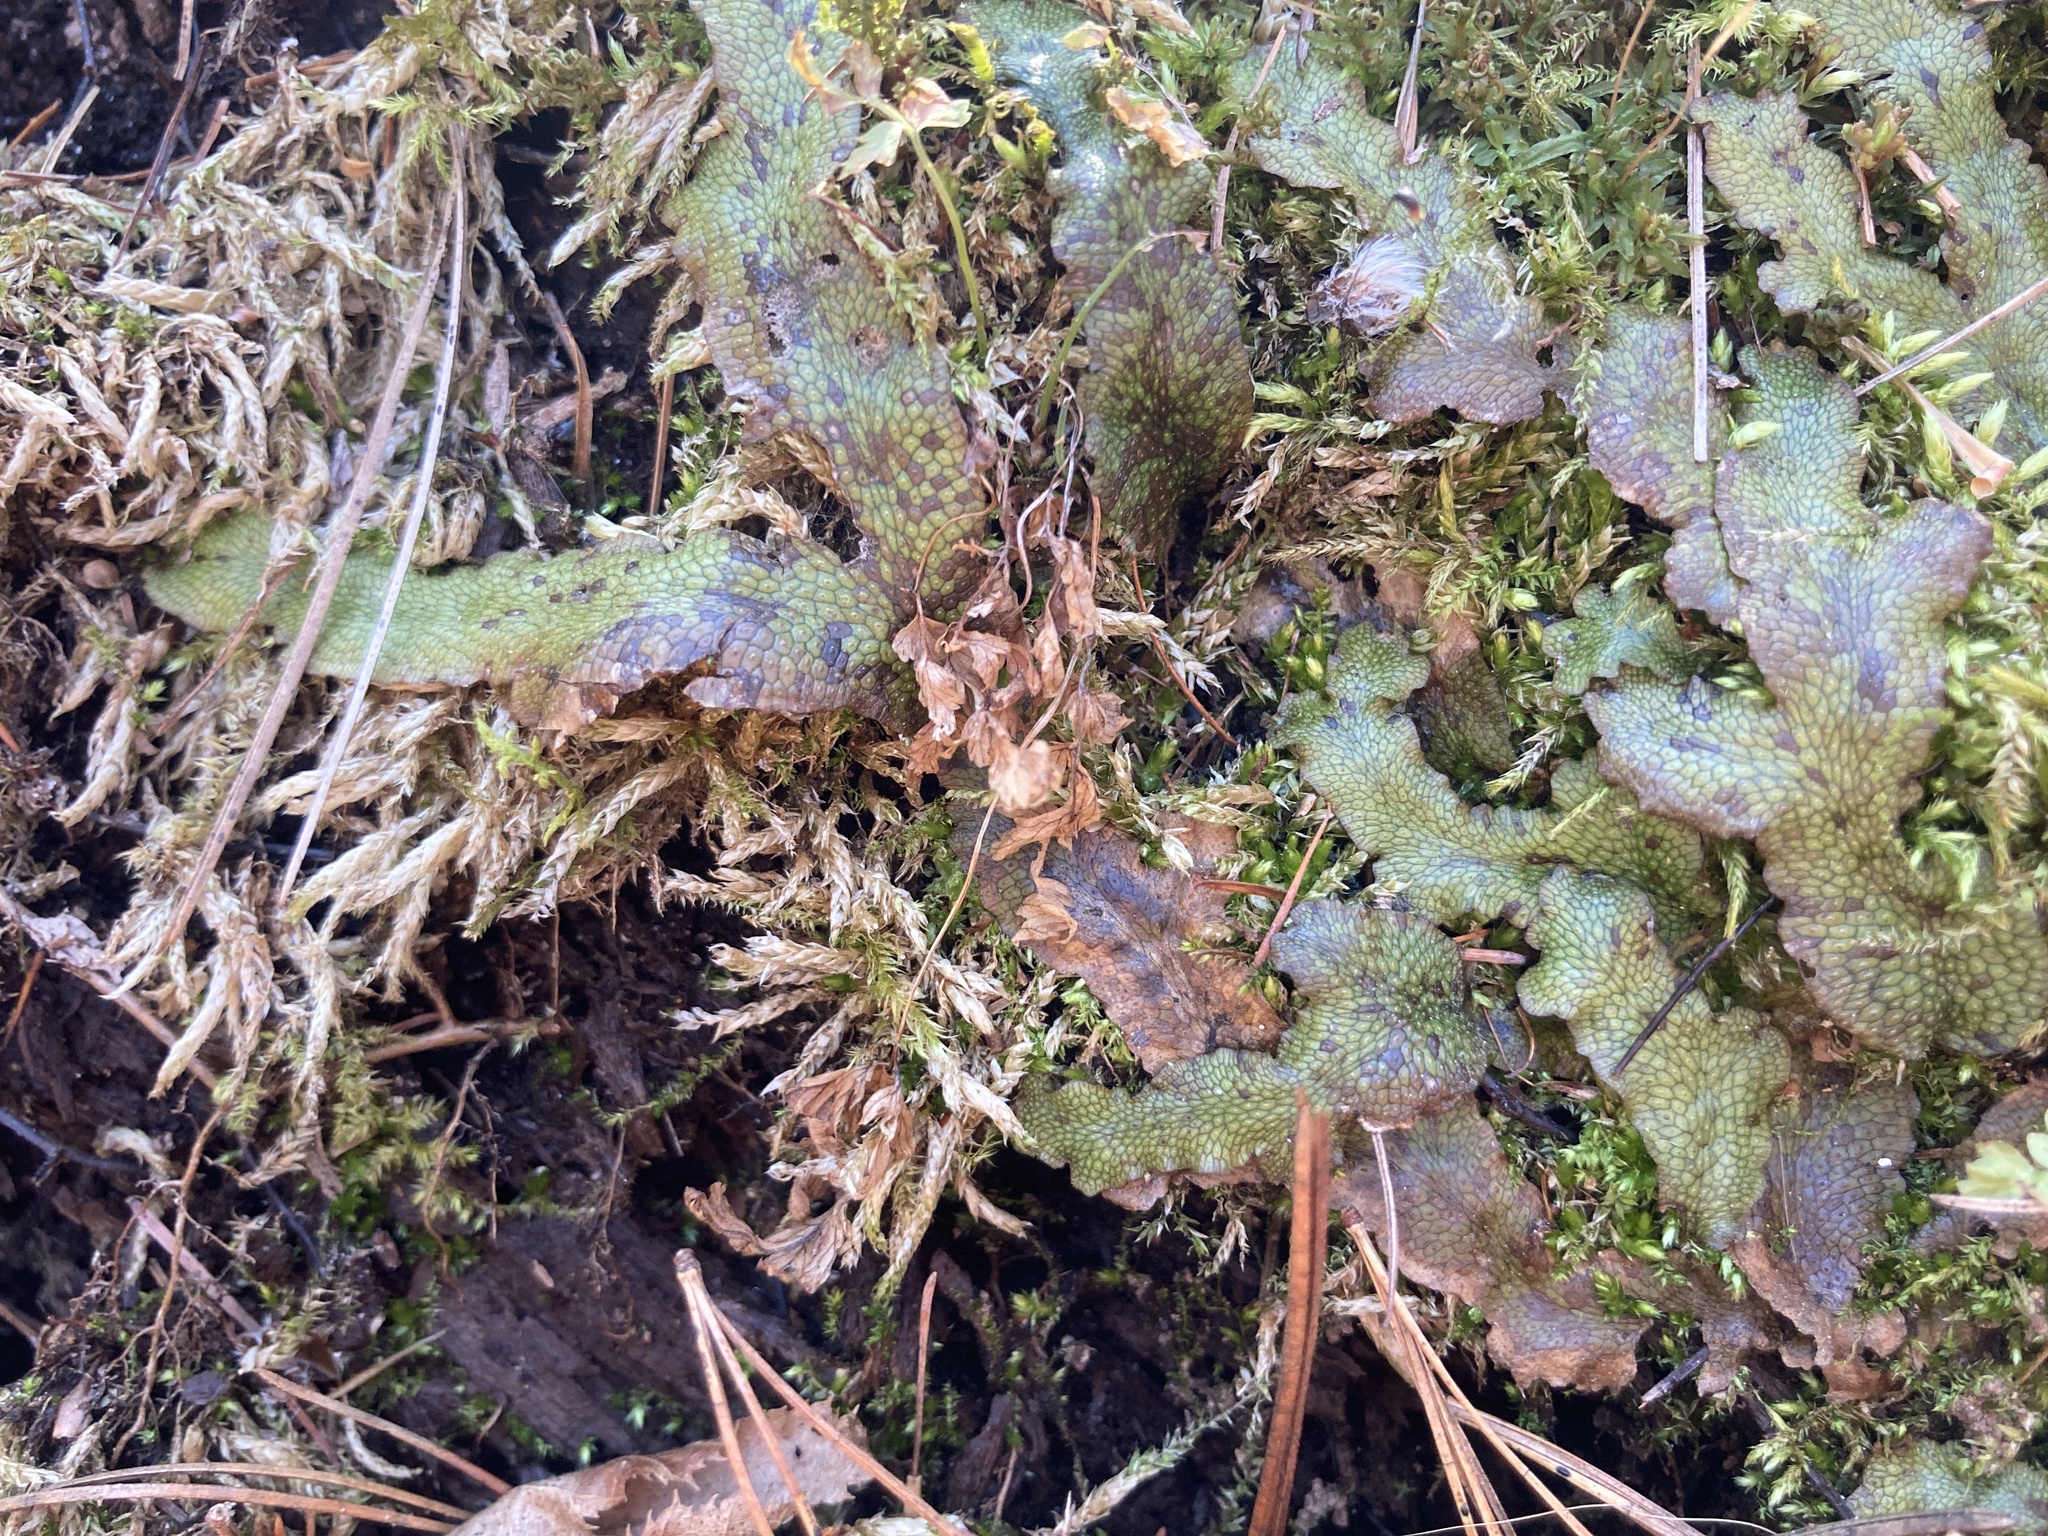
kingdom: Plantae
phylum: Marchantiophyta
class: Marchantiopsida
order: Marchantiales
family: Conocephalaceae
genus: Conocephalum
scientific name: Conocephalum salebrosum
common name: Cat-tongue liverwort
